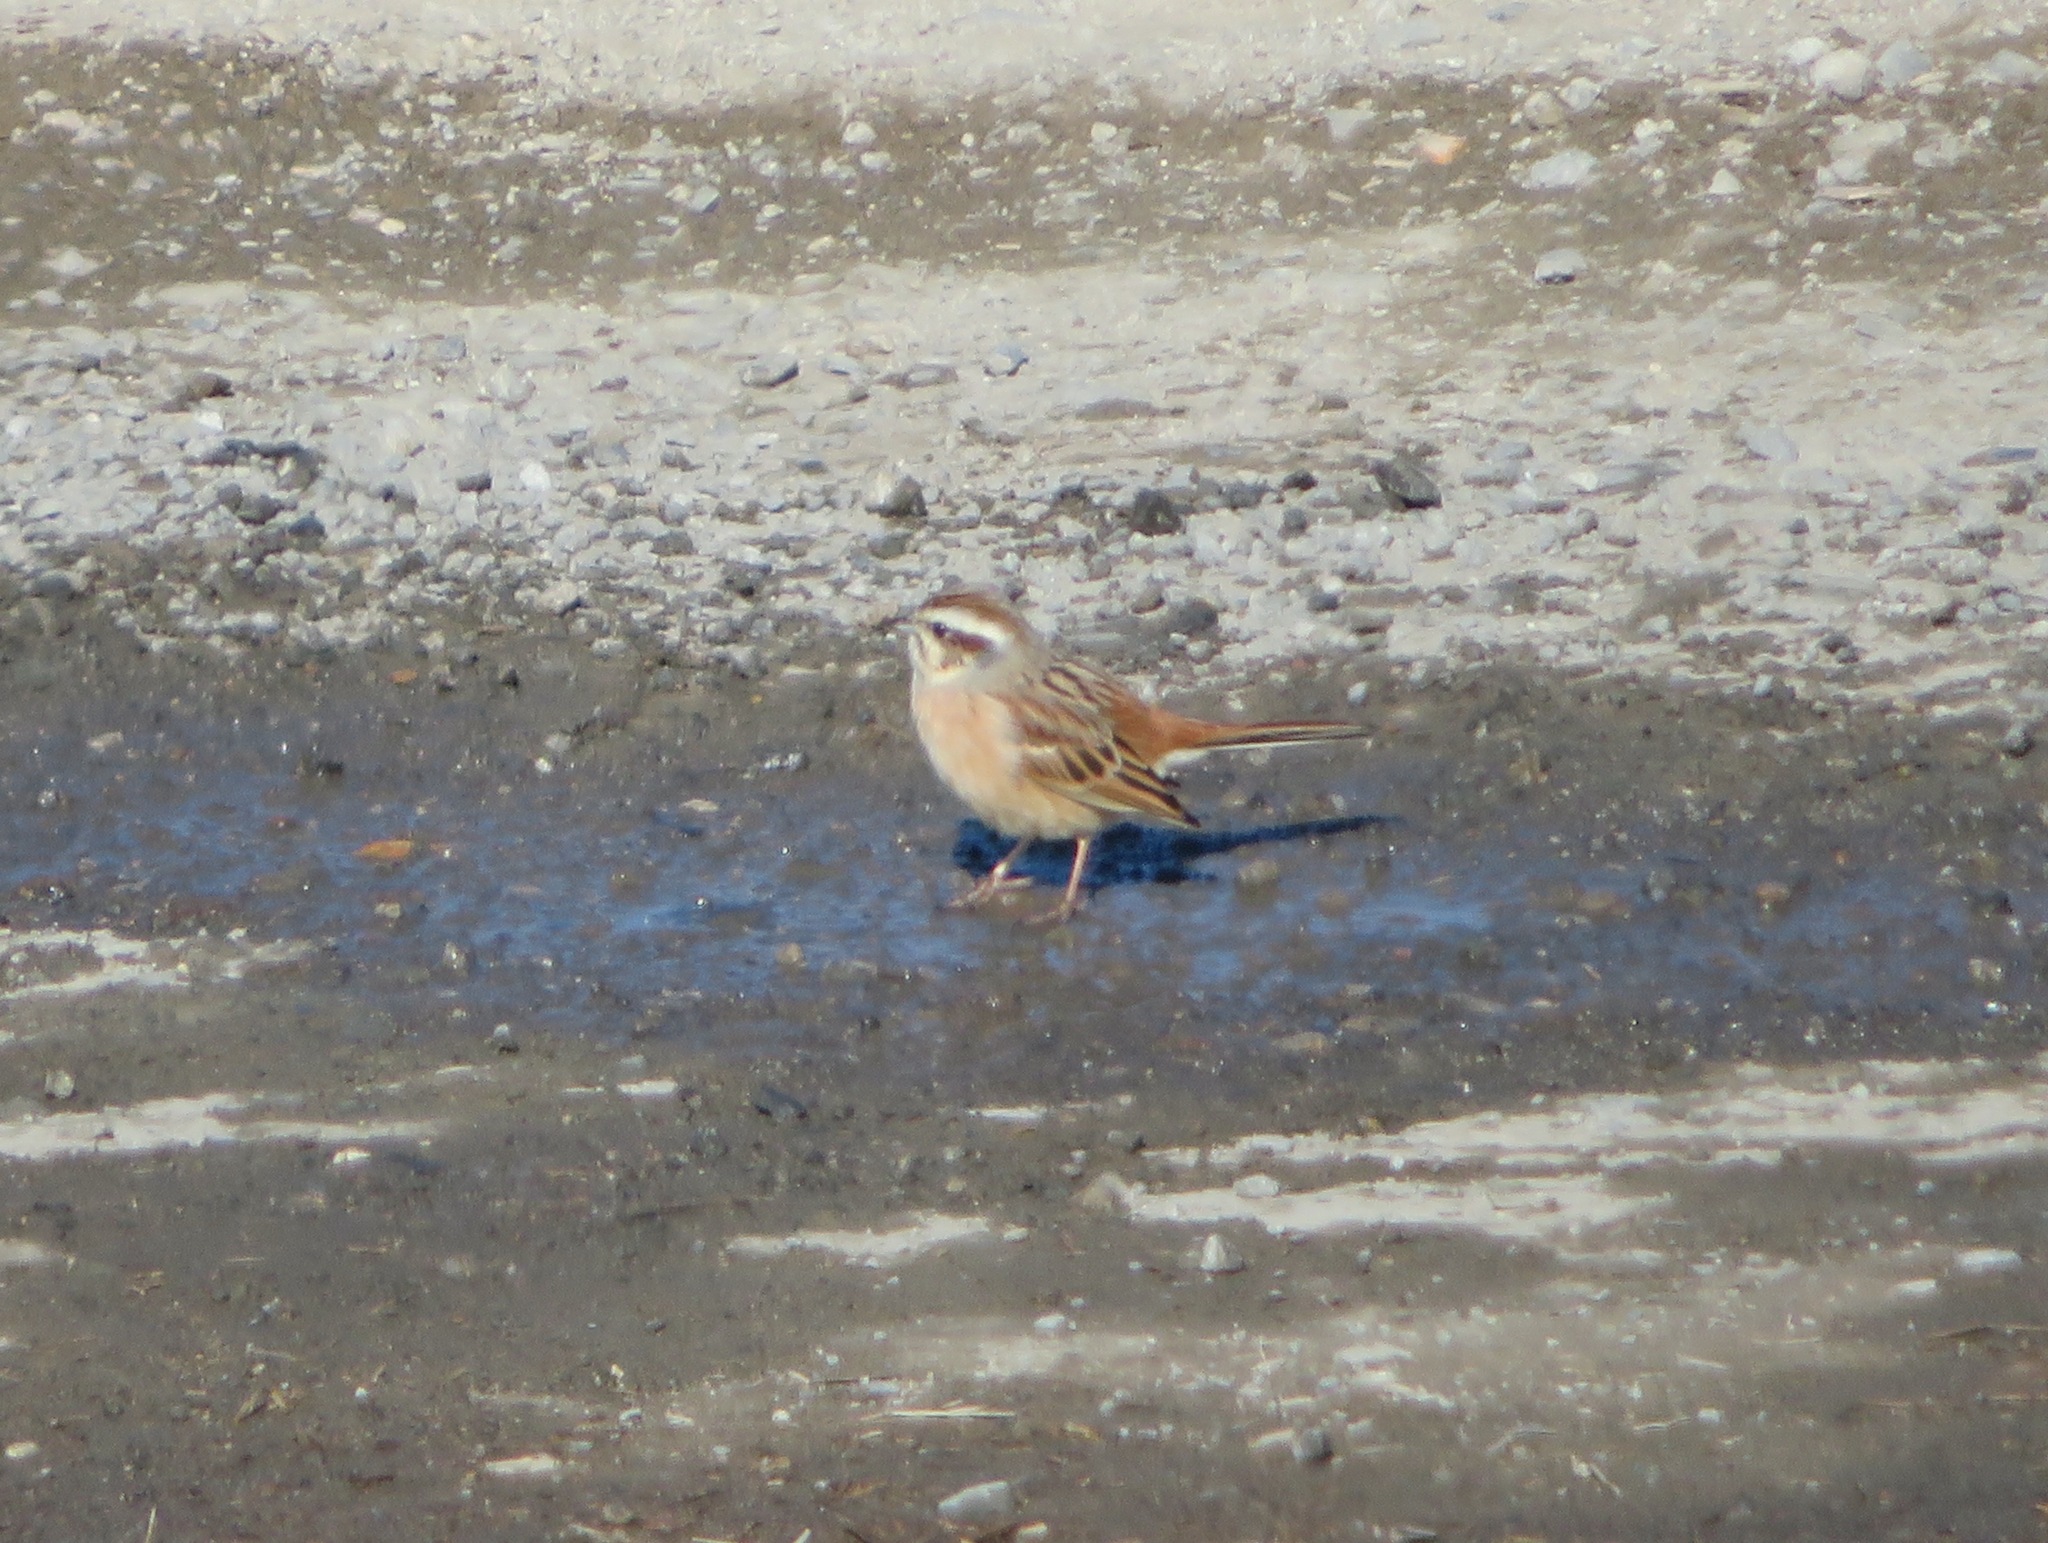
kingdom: Animalia
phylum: Chordata
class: Aves
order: Passeriformes
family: Emberizidae
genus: Emberiza
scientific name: Emberiza cioides
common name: Meadow bunting
